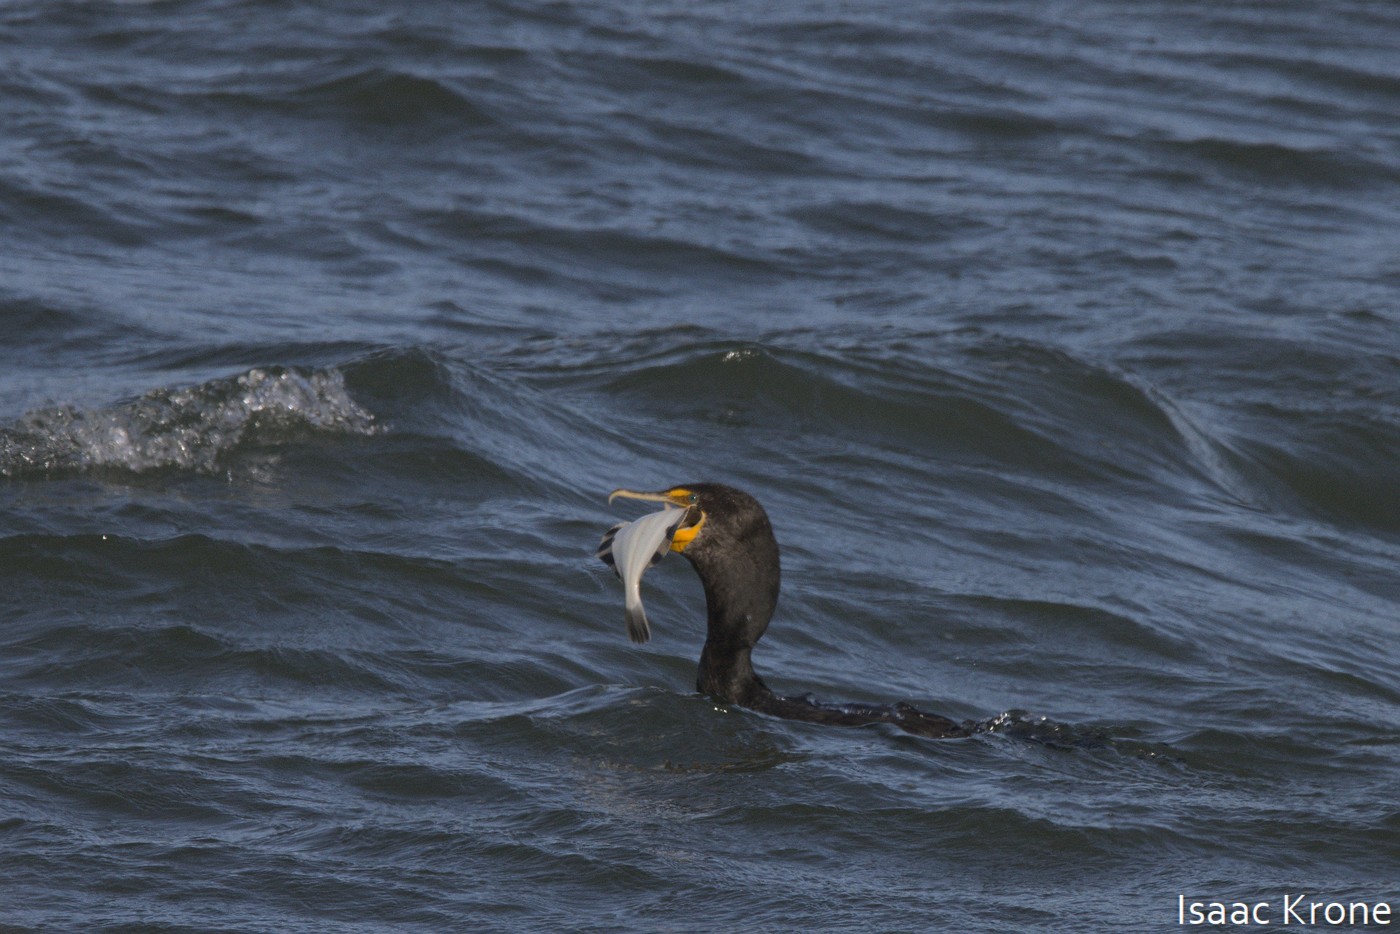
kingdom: Animalia
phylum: Chordata
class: Aves
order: Suliformes
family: Phalacrocoracidae
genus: Phalacrocorax
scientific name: Phalacrocorax auritus
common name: Double-crested cormorant
